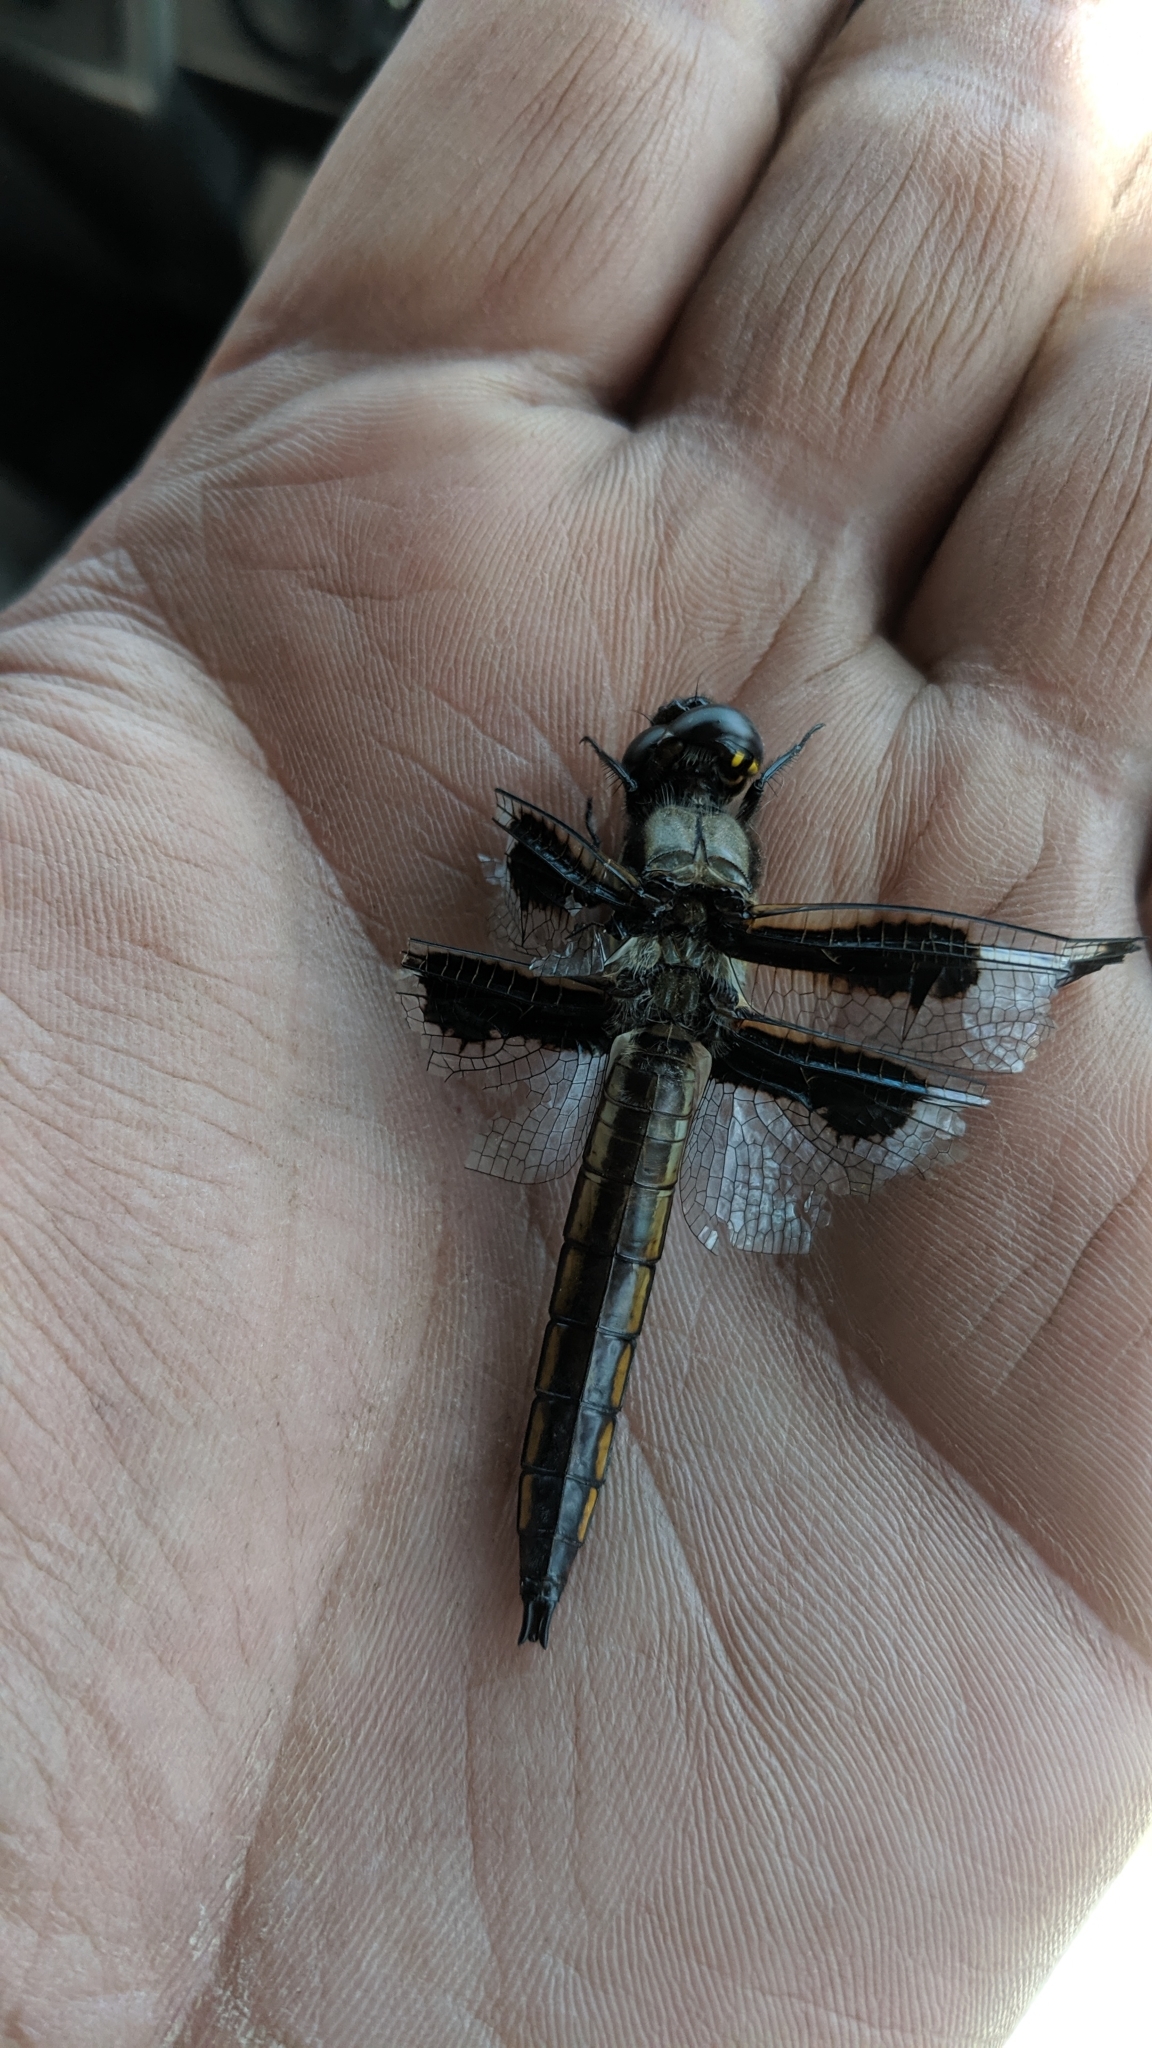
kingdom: Animalia
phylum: Arthropoda
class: Insecta
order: Odonata
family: Libellulidae
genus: Libellula
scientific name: Libellula pulchella
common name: Twelve-spotted skimmer
